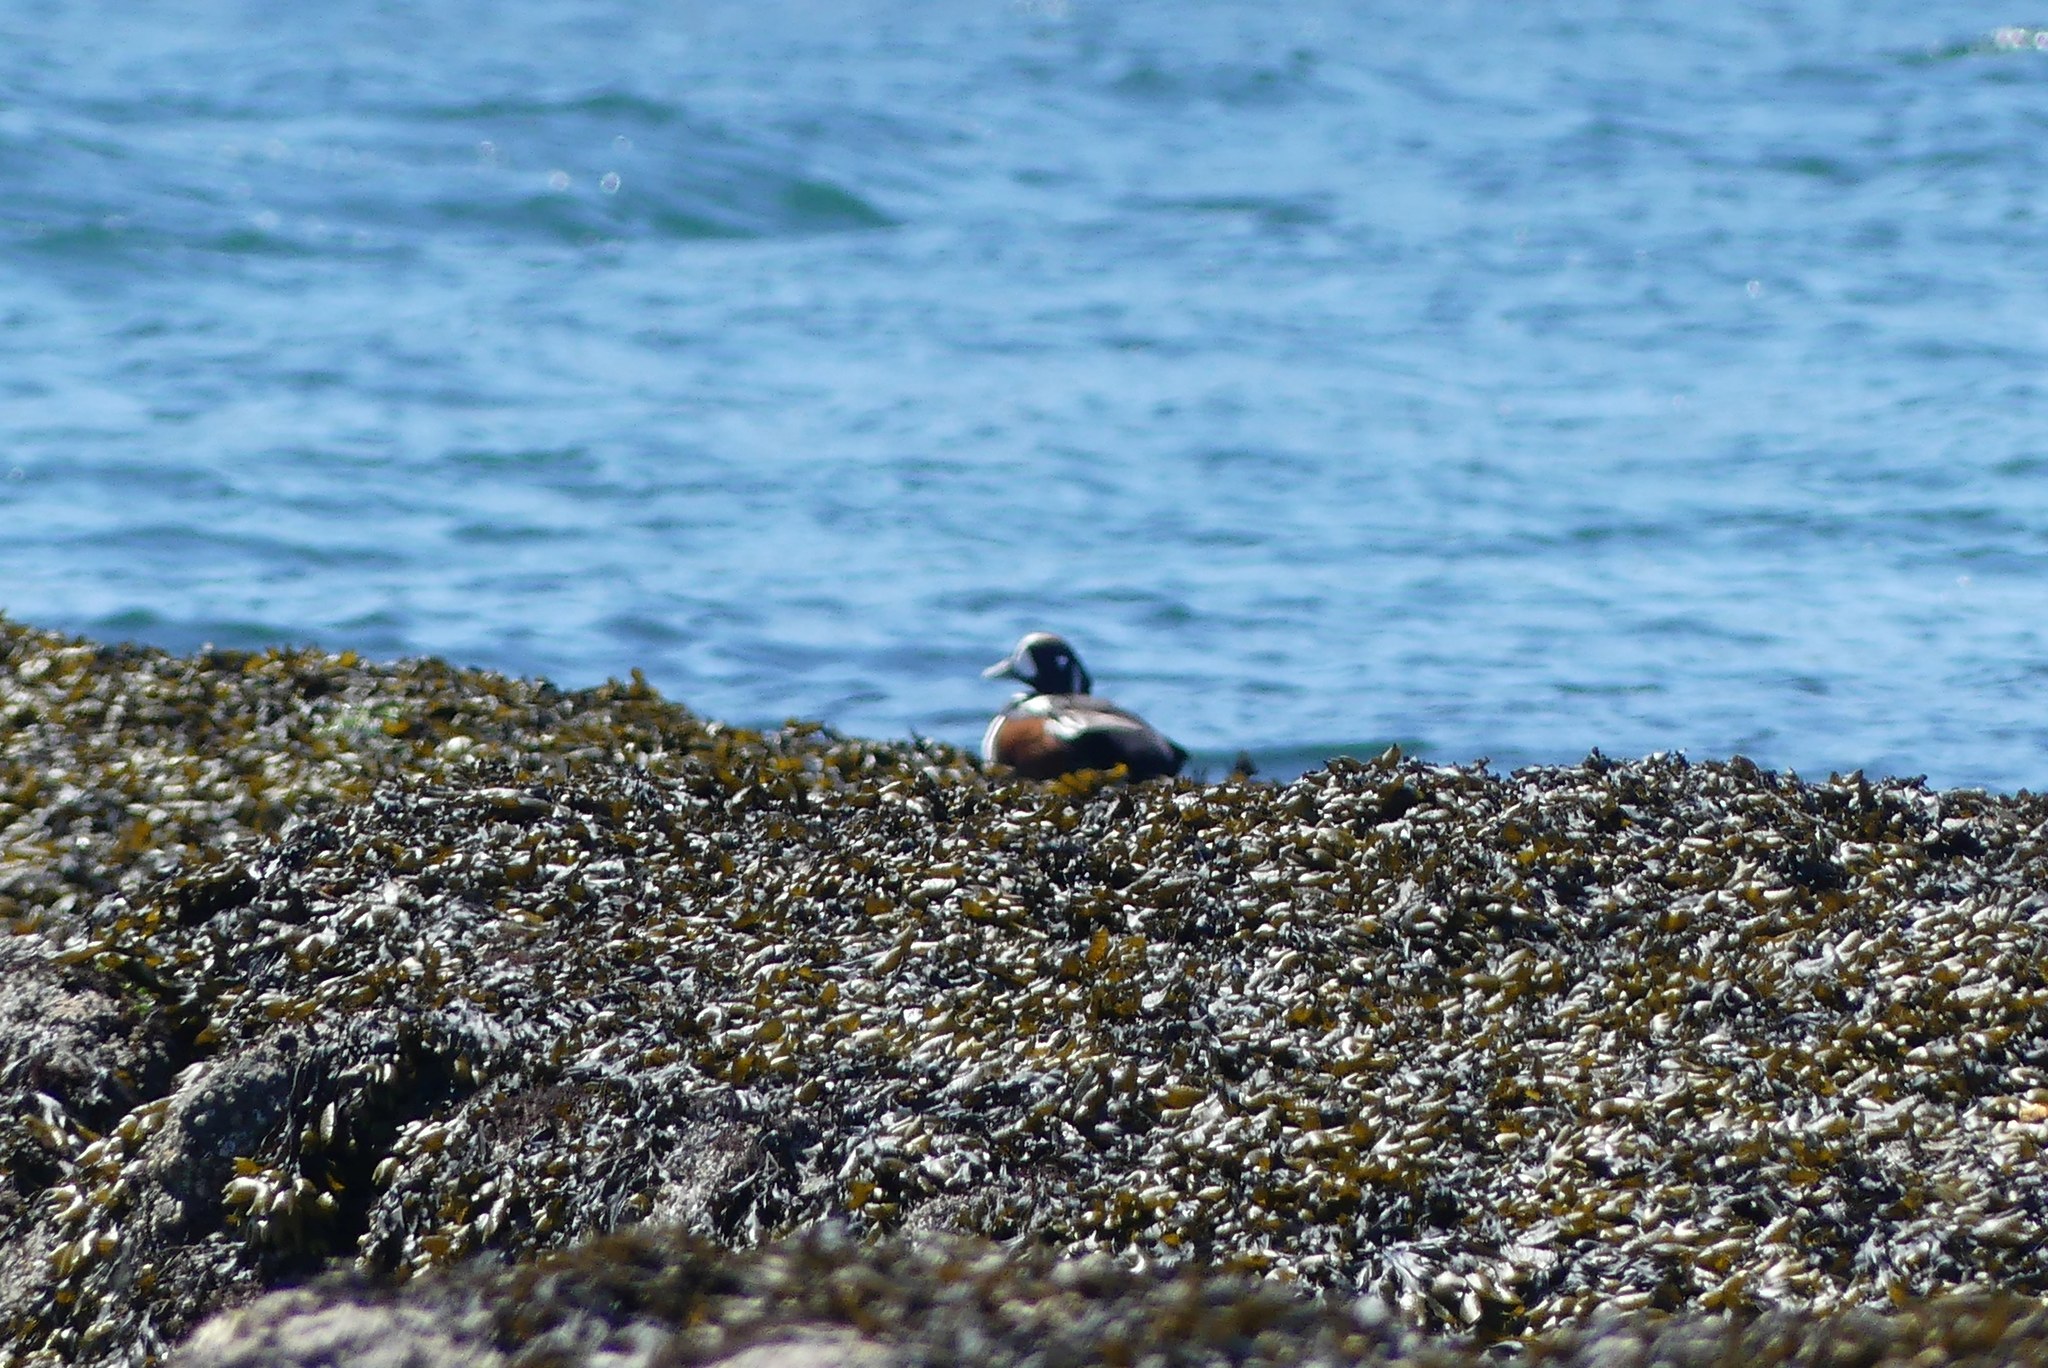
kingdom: Animalia
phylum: Chordata
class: Aves
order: Anseriformes
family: Anatidae
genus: Histrionicus
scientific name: Histrionicus histrionicus
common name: Harlequin duck
